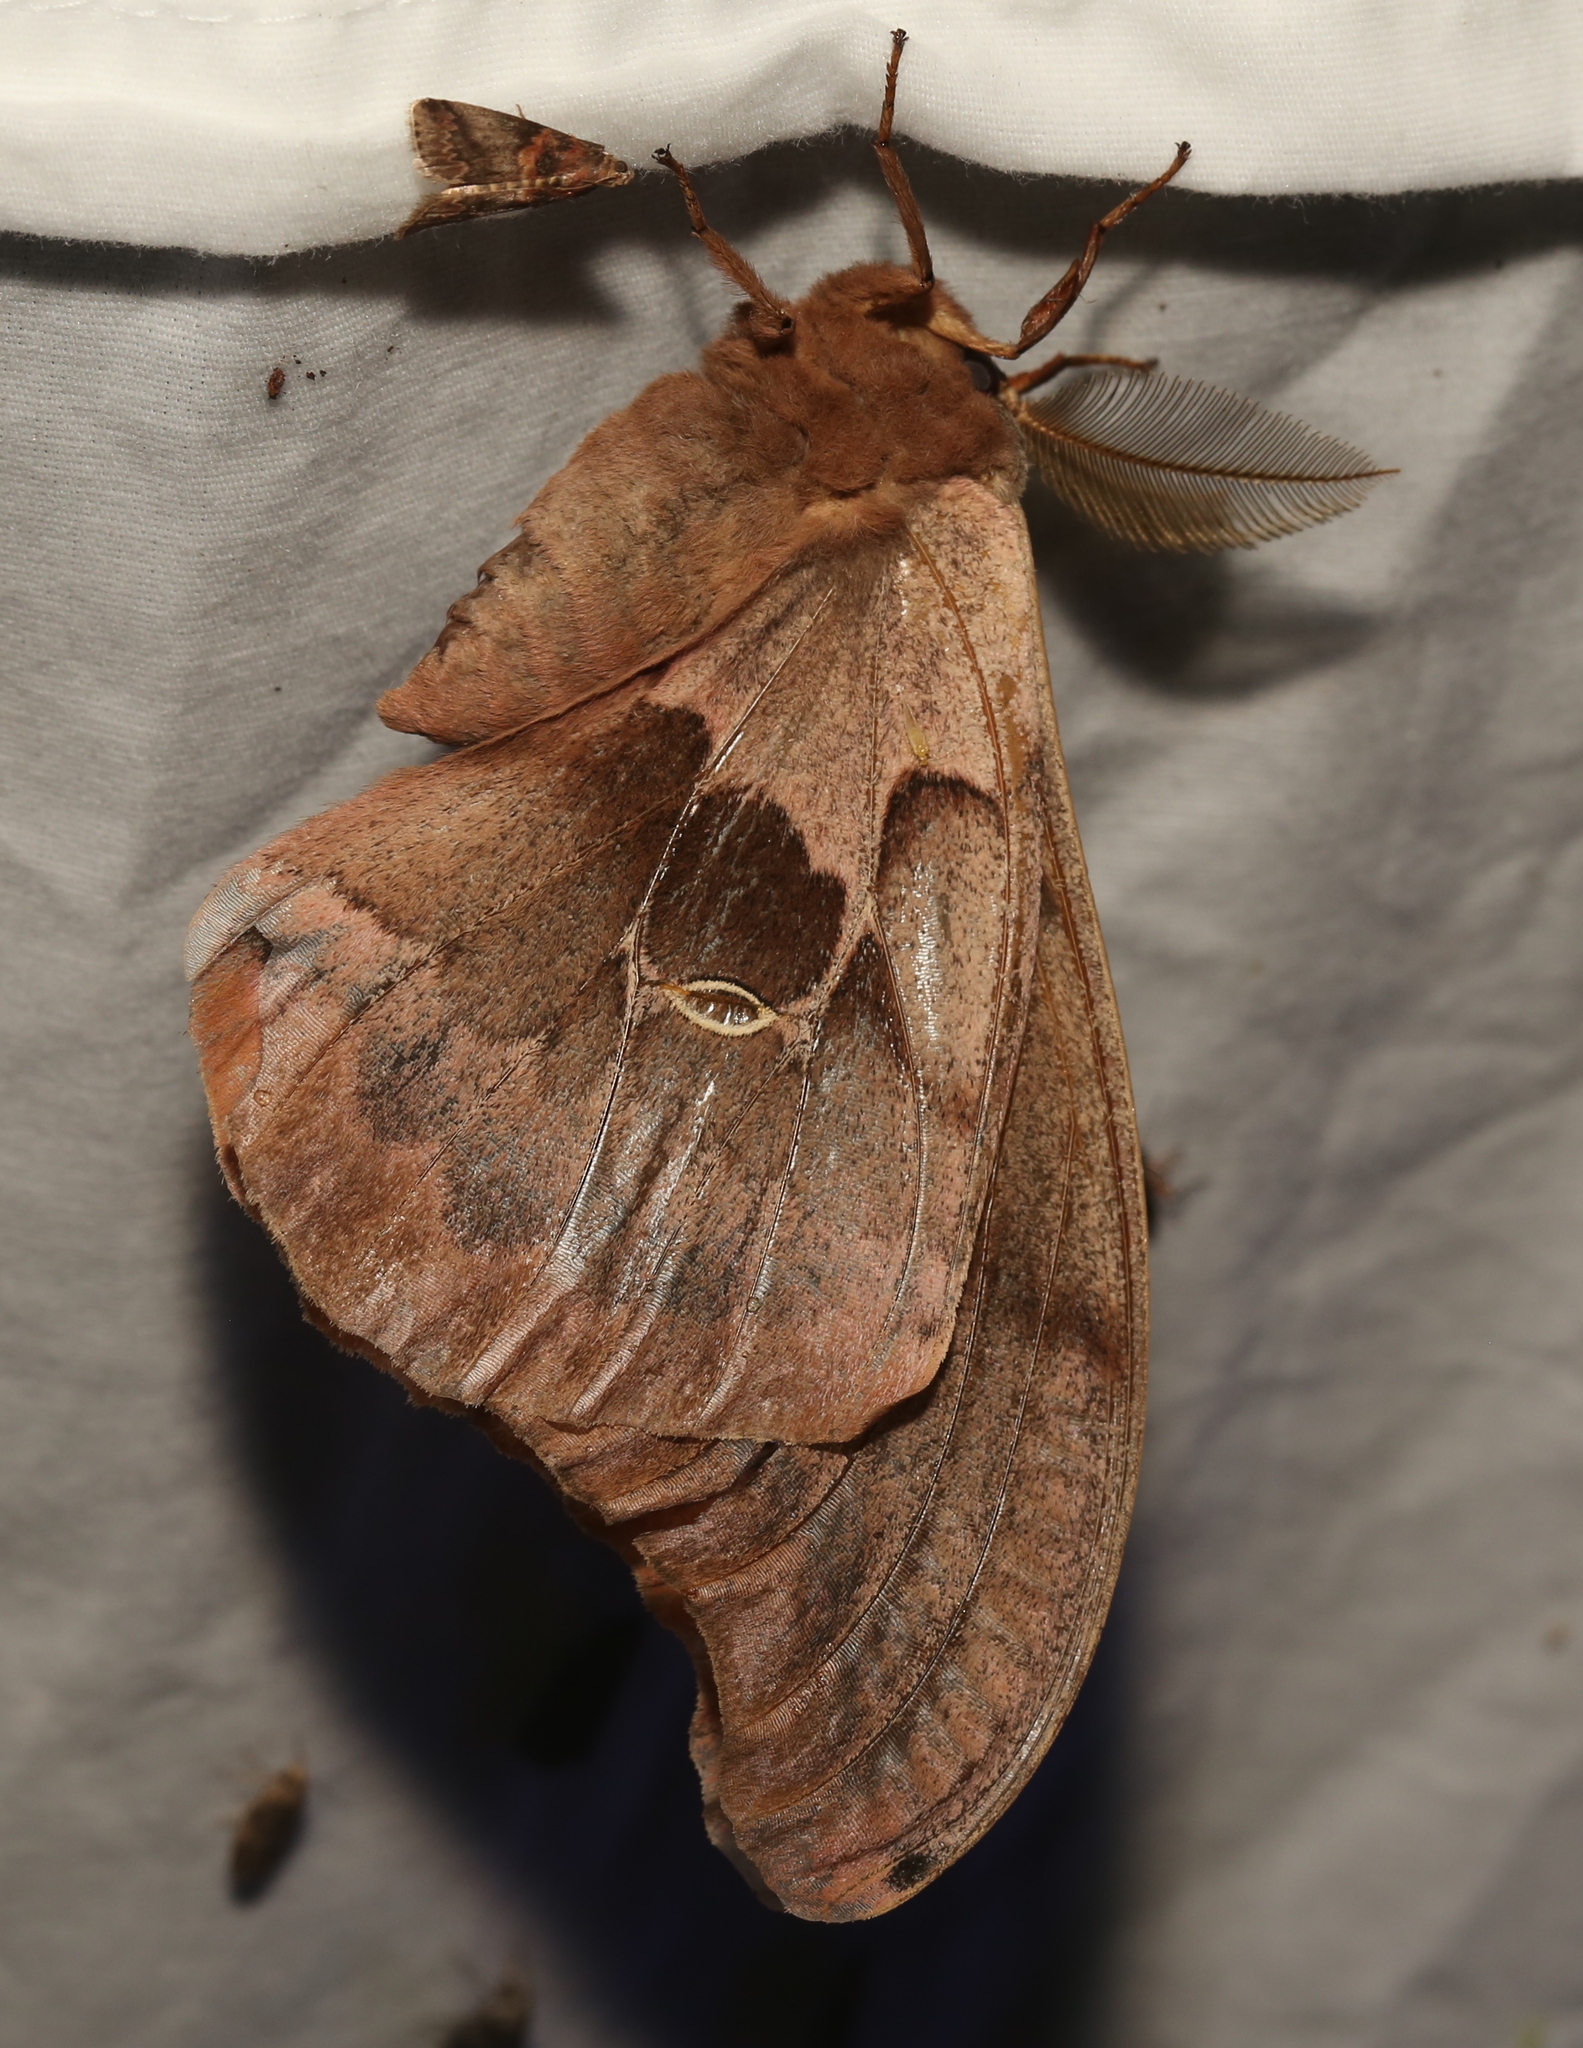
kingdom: Animalia
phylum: Arthropoda
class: Insecta
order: Lepidoptera
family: Saturniidae
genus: Antheraea
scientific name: Antheraea polyphemus
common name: Polyphemus moth
